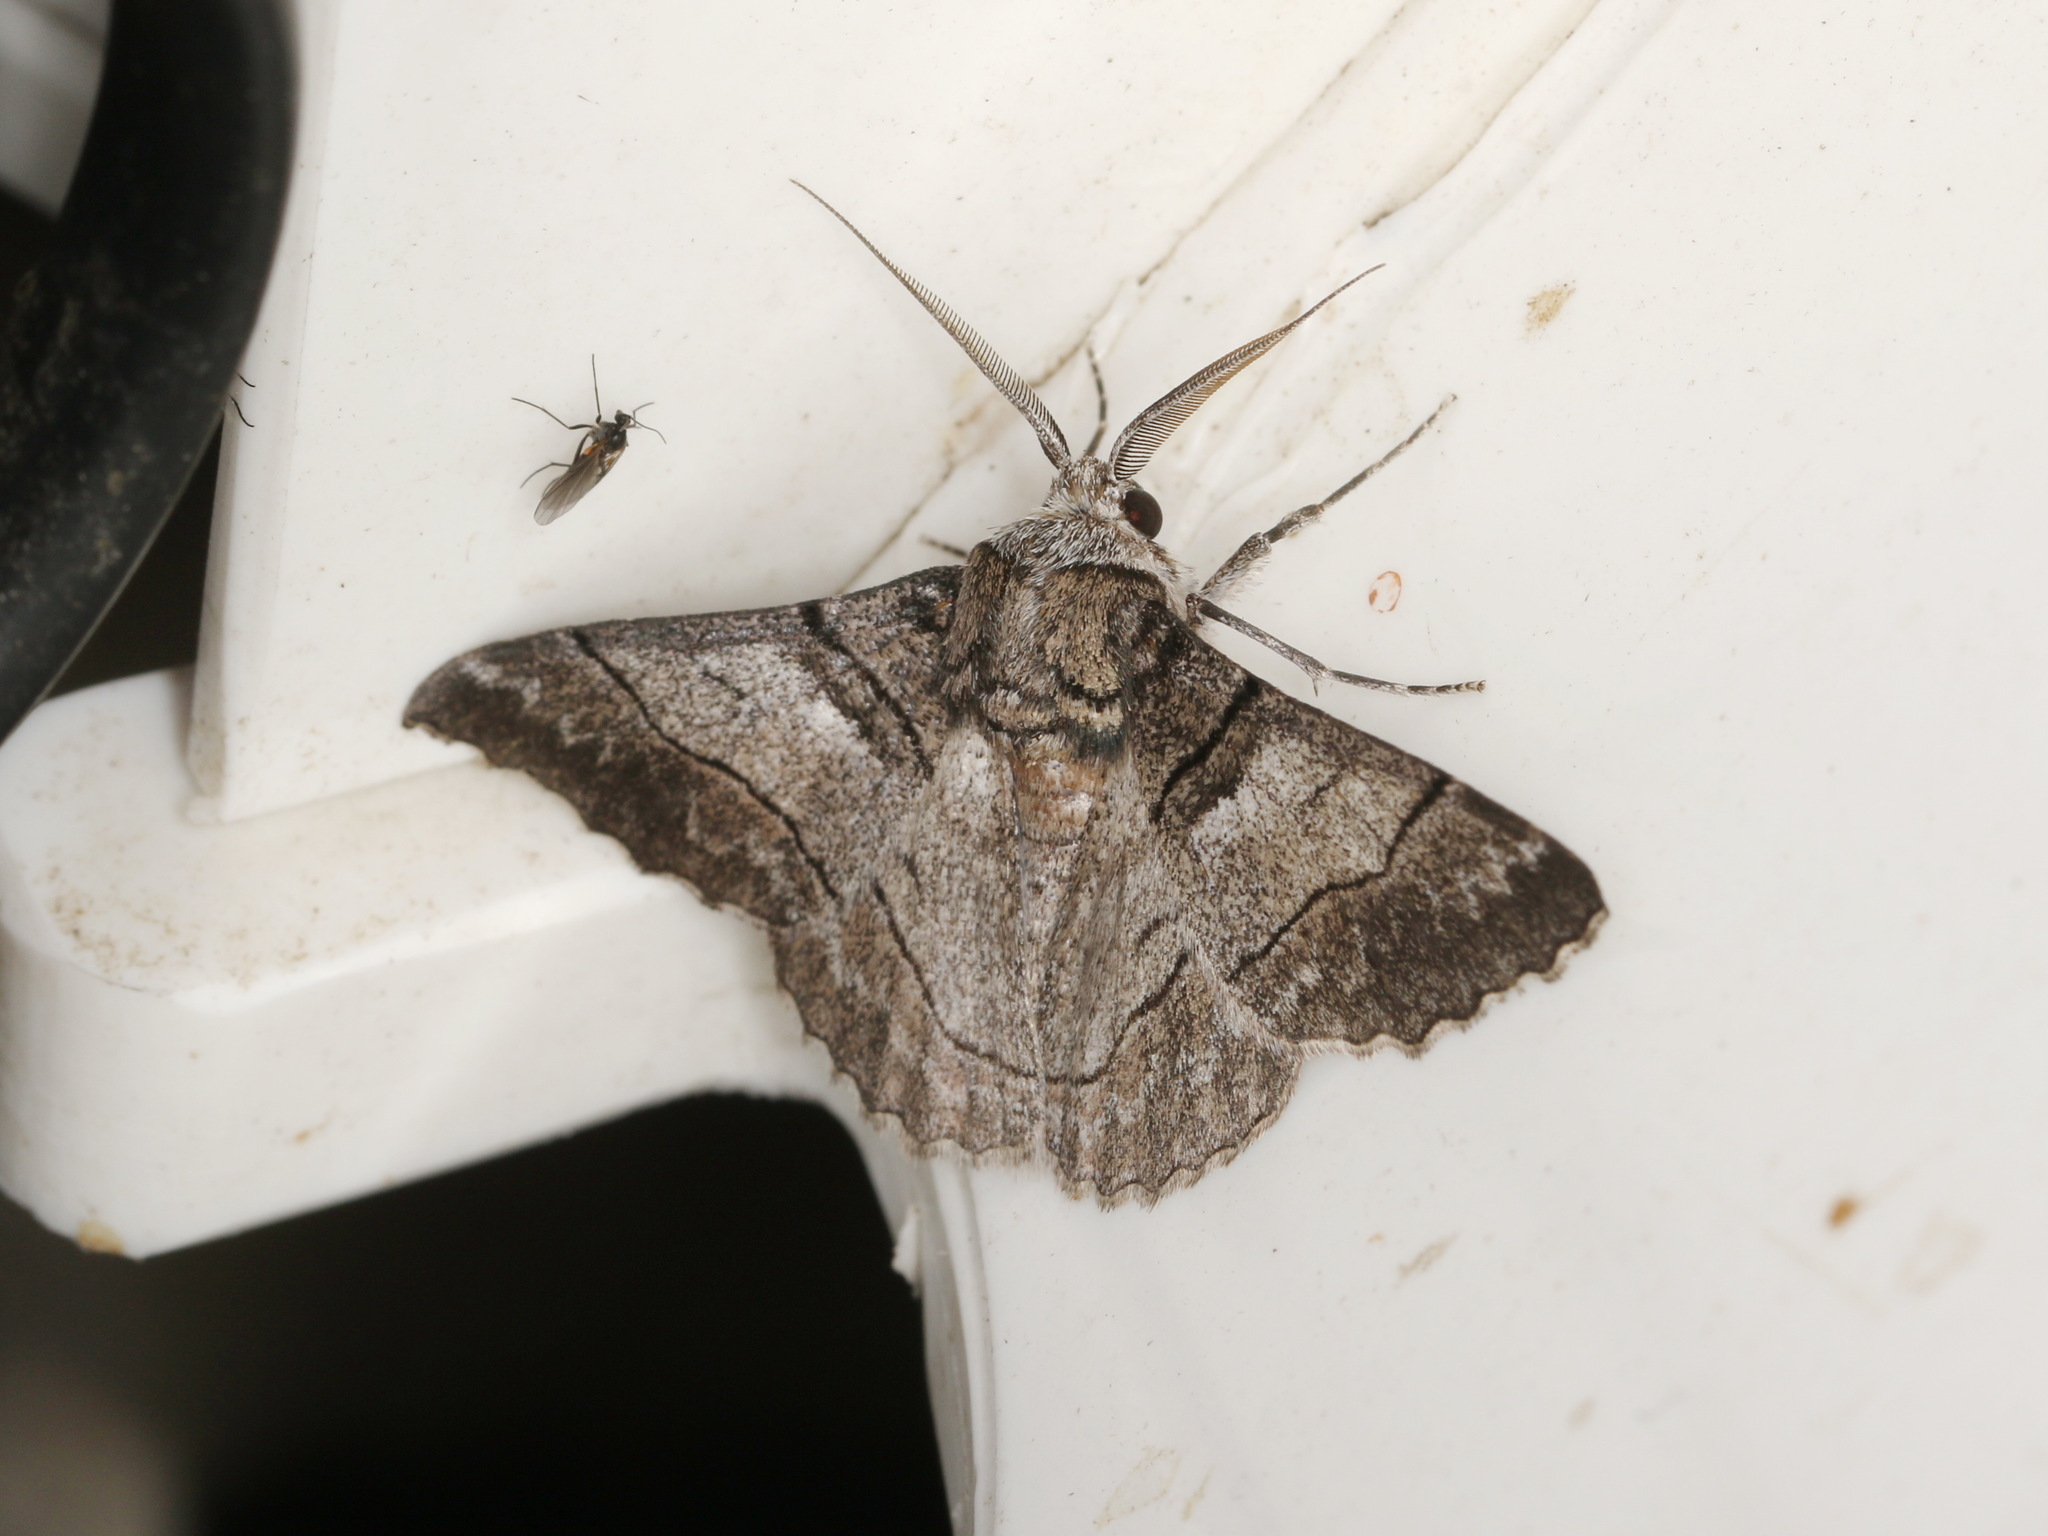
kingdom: Animalia
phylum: Arthropoda
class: Insecta
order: Lepidoptera
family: Geometridae
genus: Hypobapta
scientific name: Hypobapta diffundens
